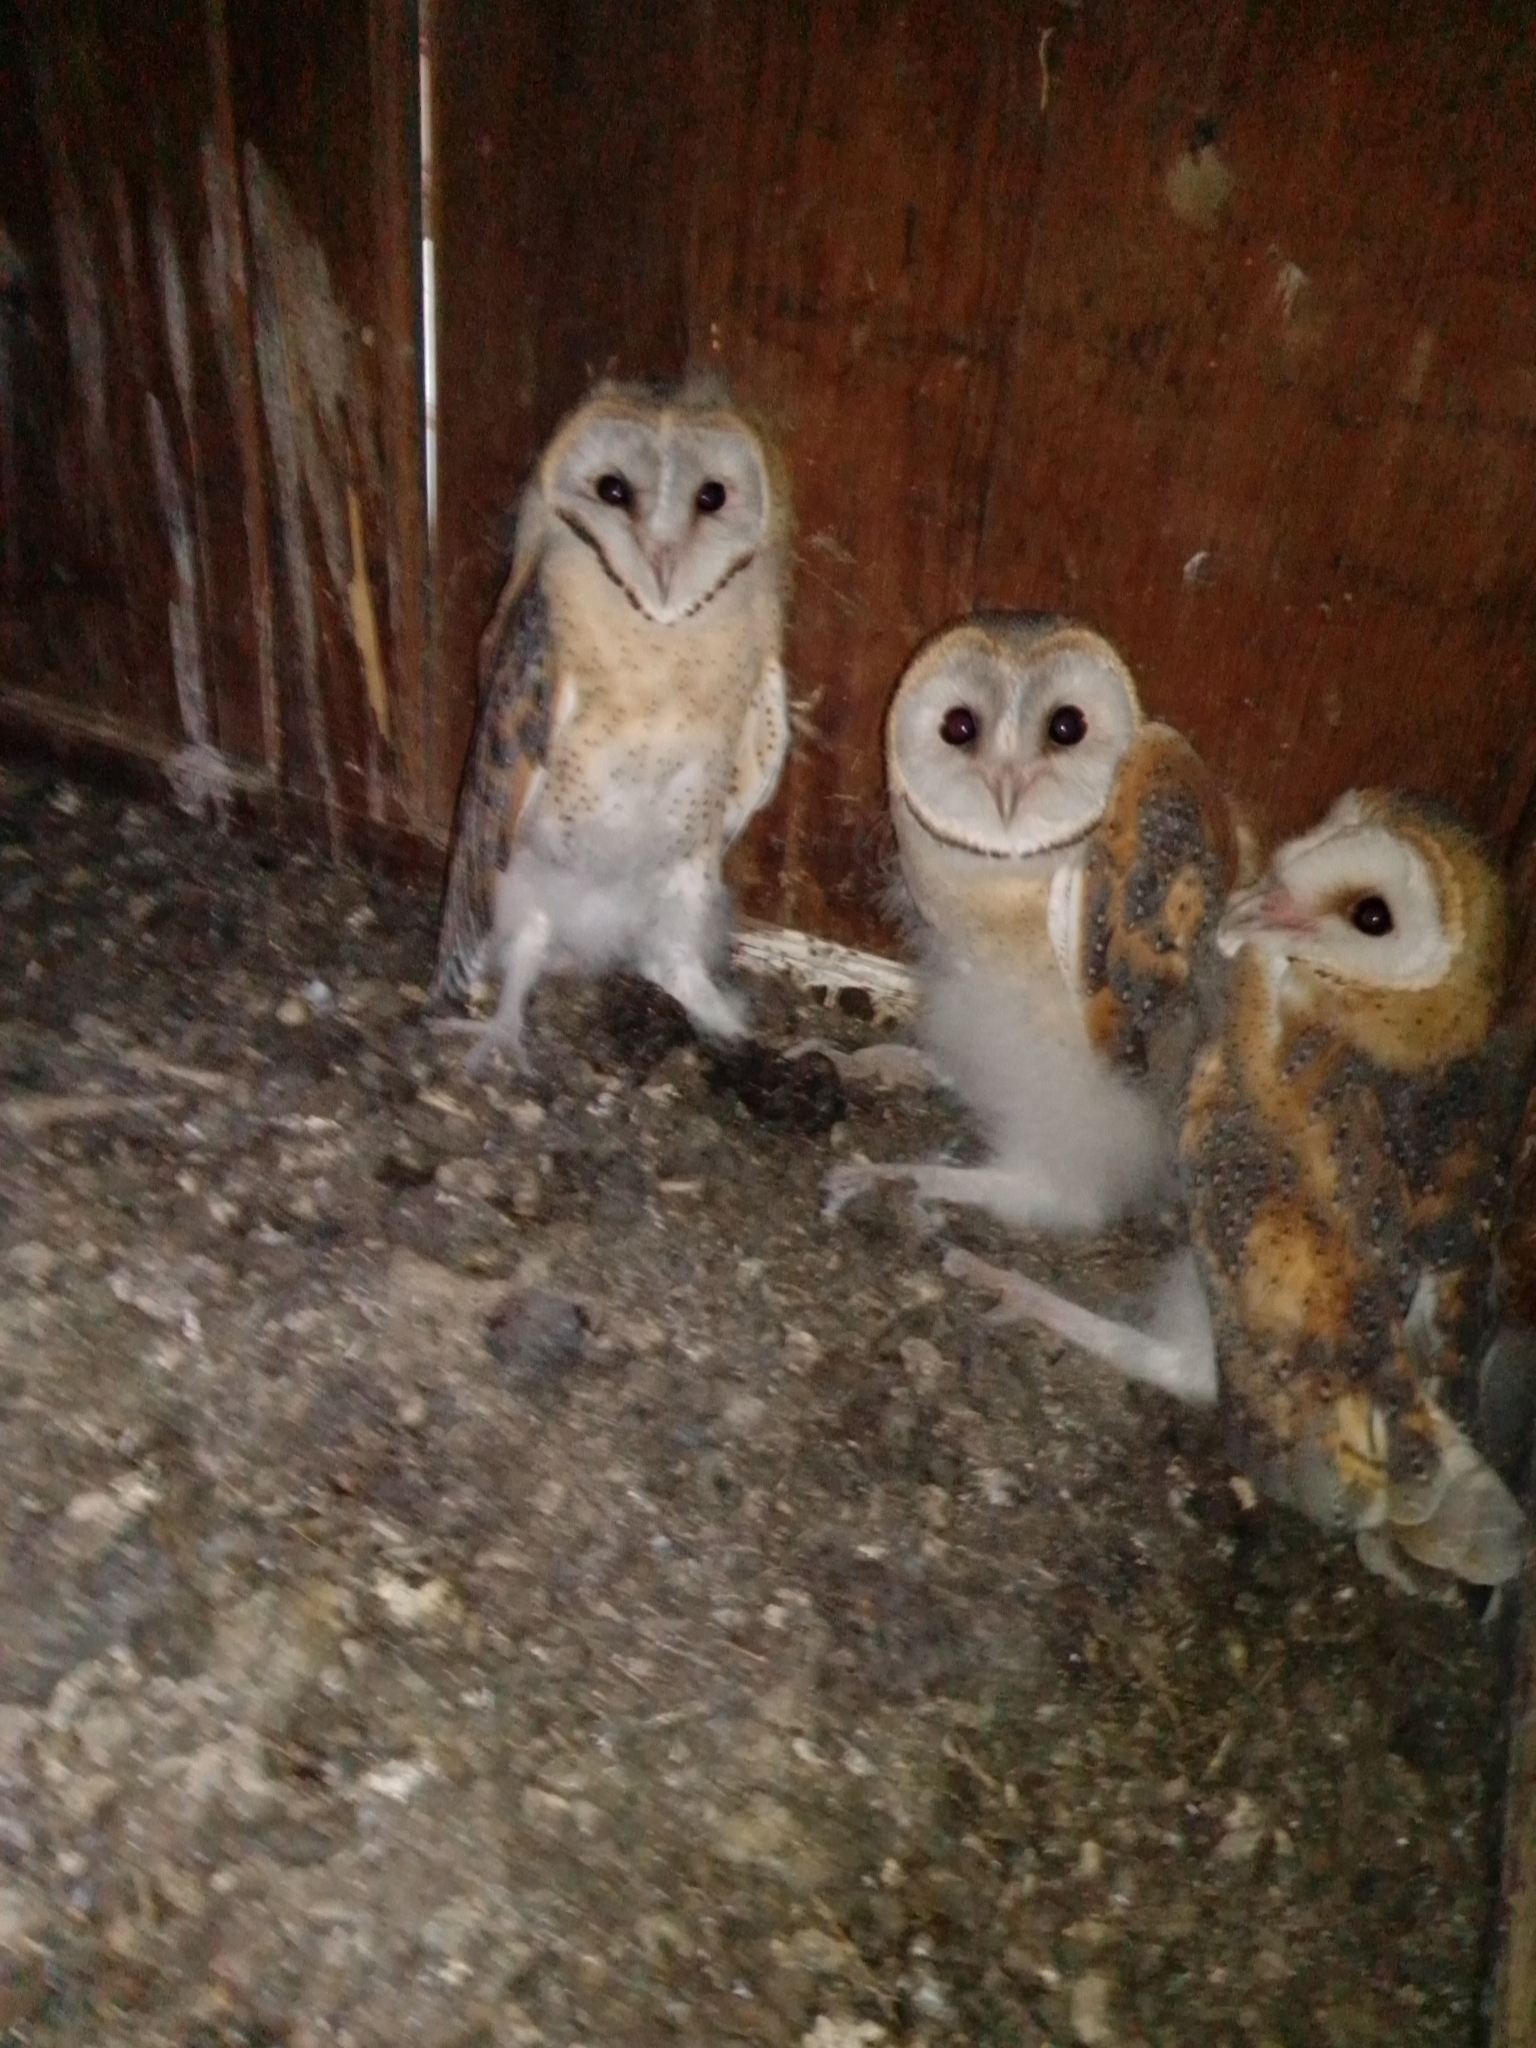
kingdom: Animalia
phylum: Chordata
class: Aves
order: Strigiformes
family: Tytonidae
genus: Tyto
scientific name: Tyto alba
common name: Barn owl
